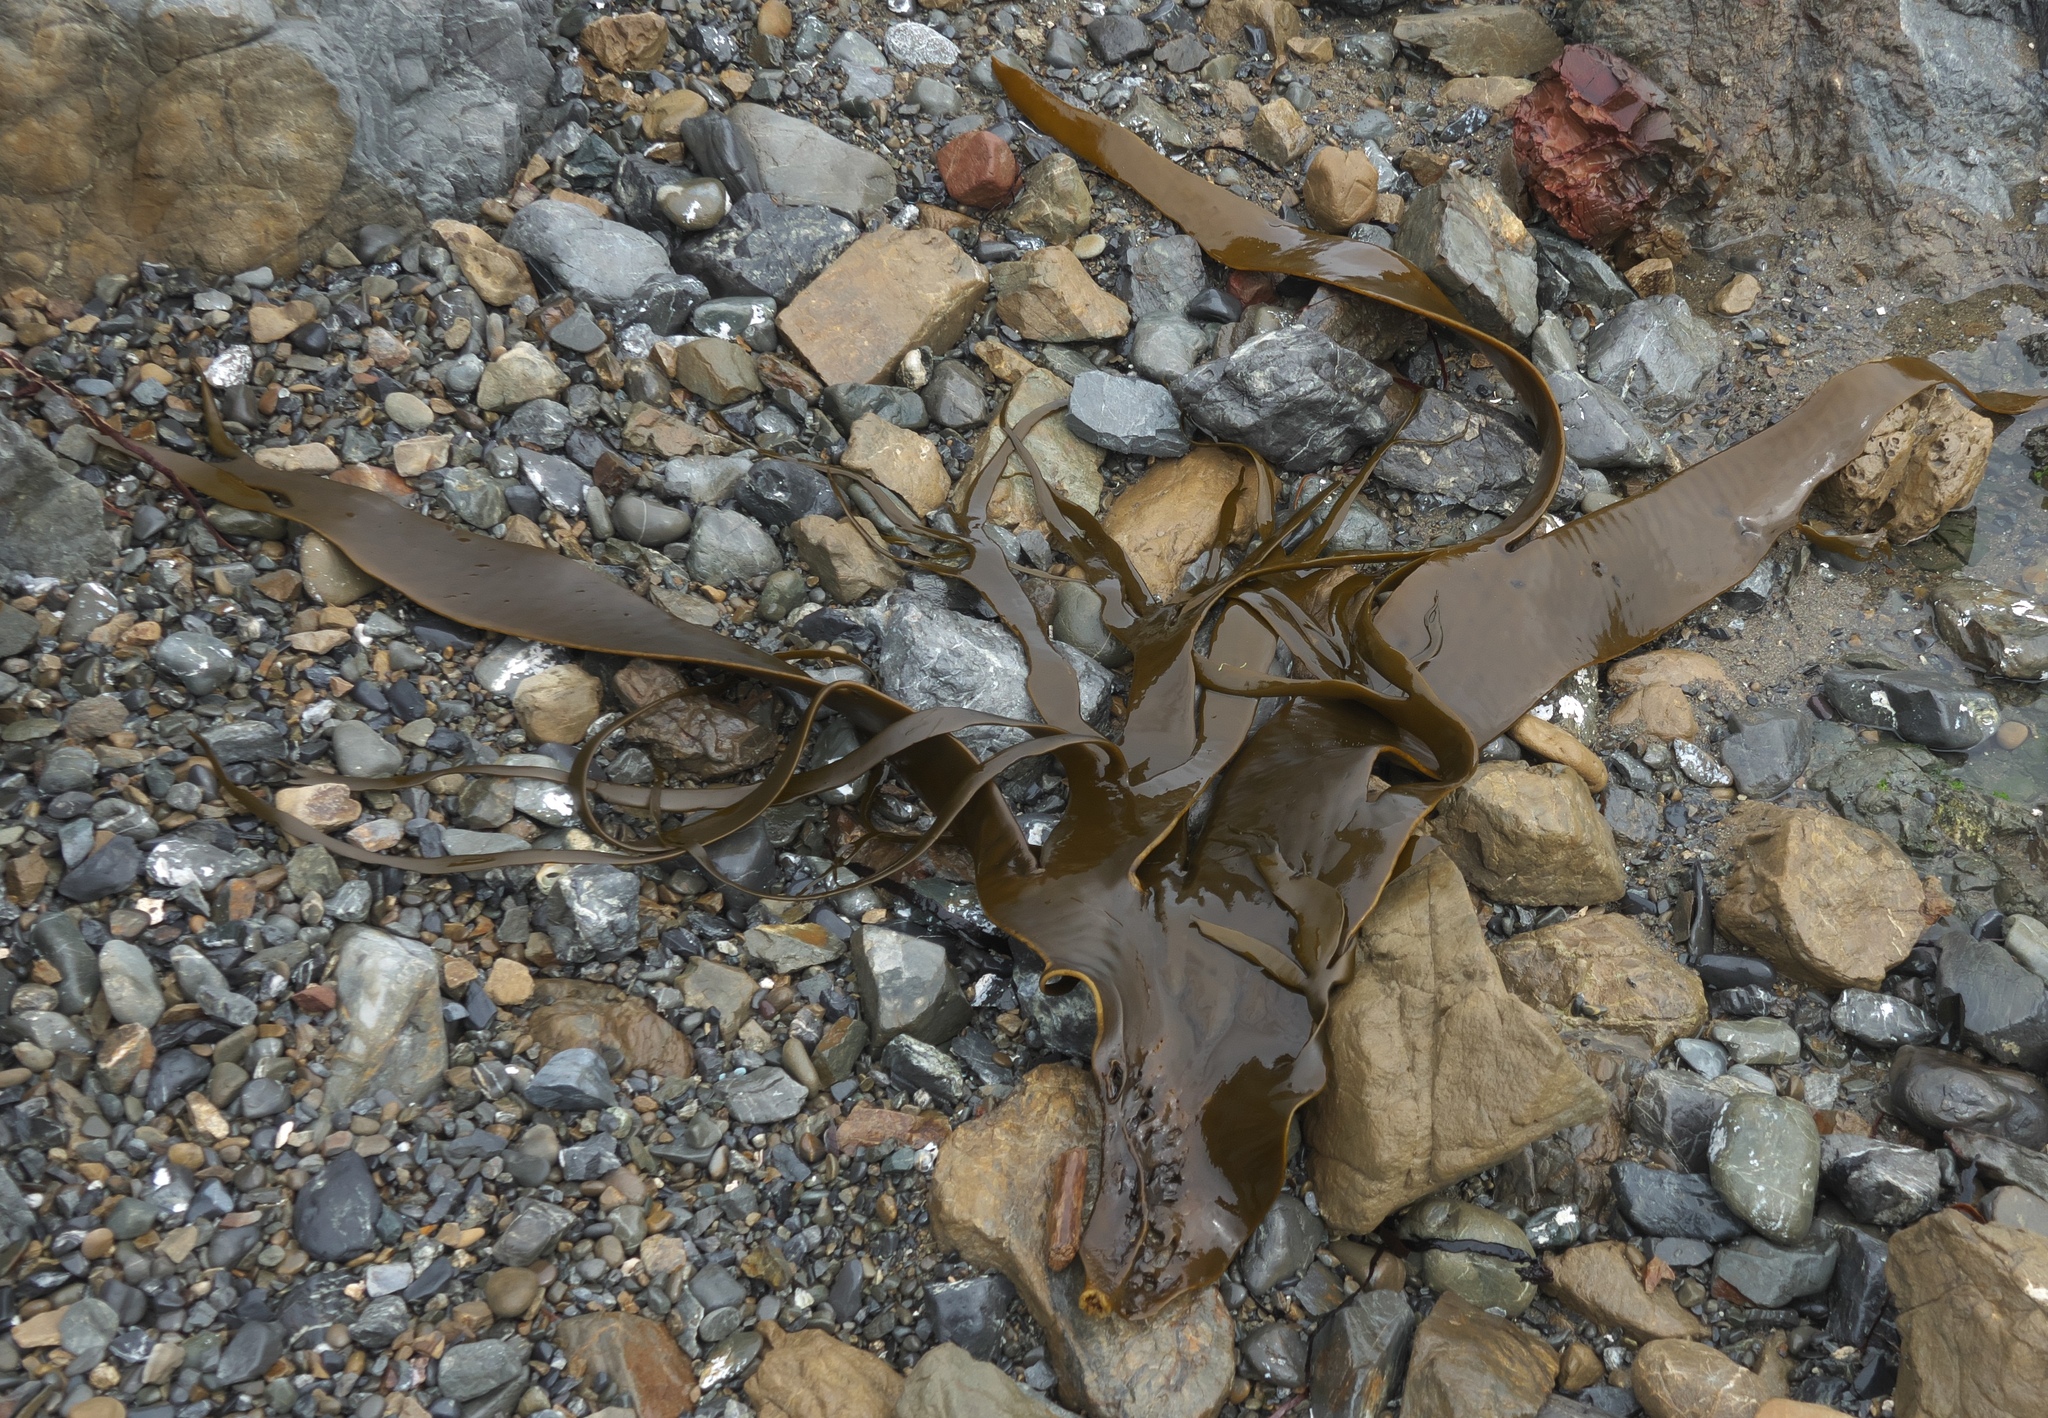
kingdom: Chromista
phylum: Ochrophyta
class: Phaeophyceae
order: Fucales
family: Durvillaeaceae
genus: Durvillaea
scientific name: Durvillaea antarctica
